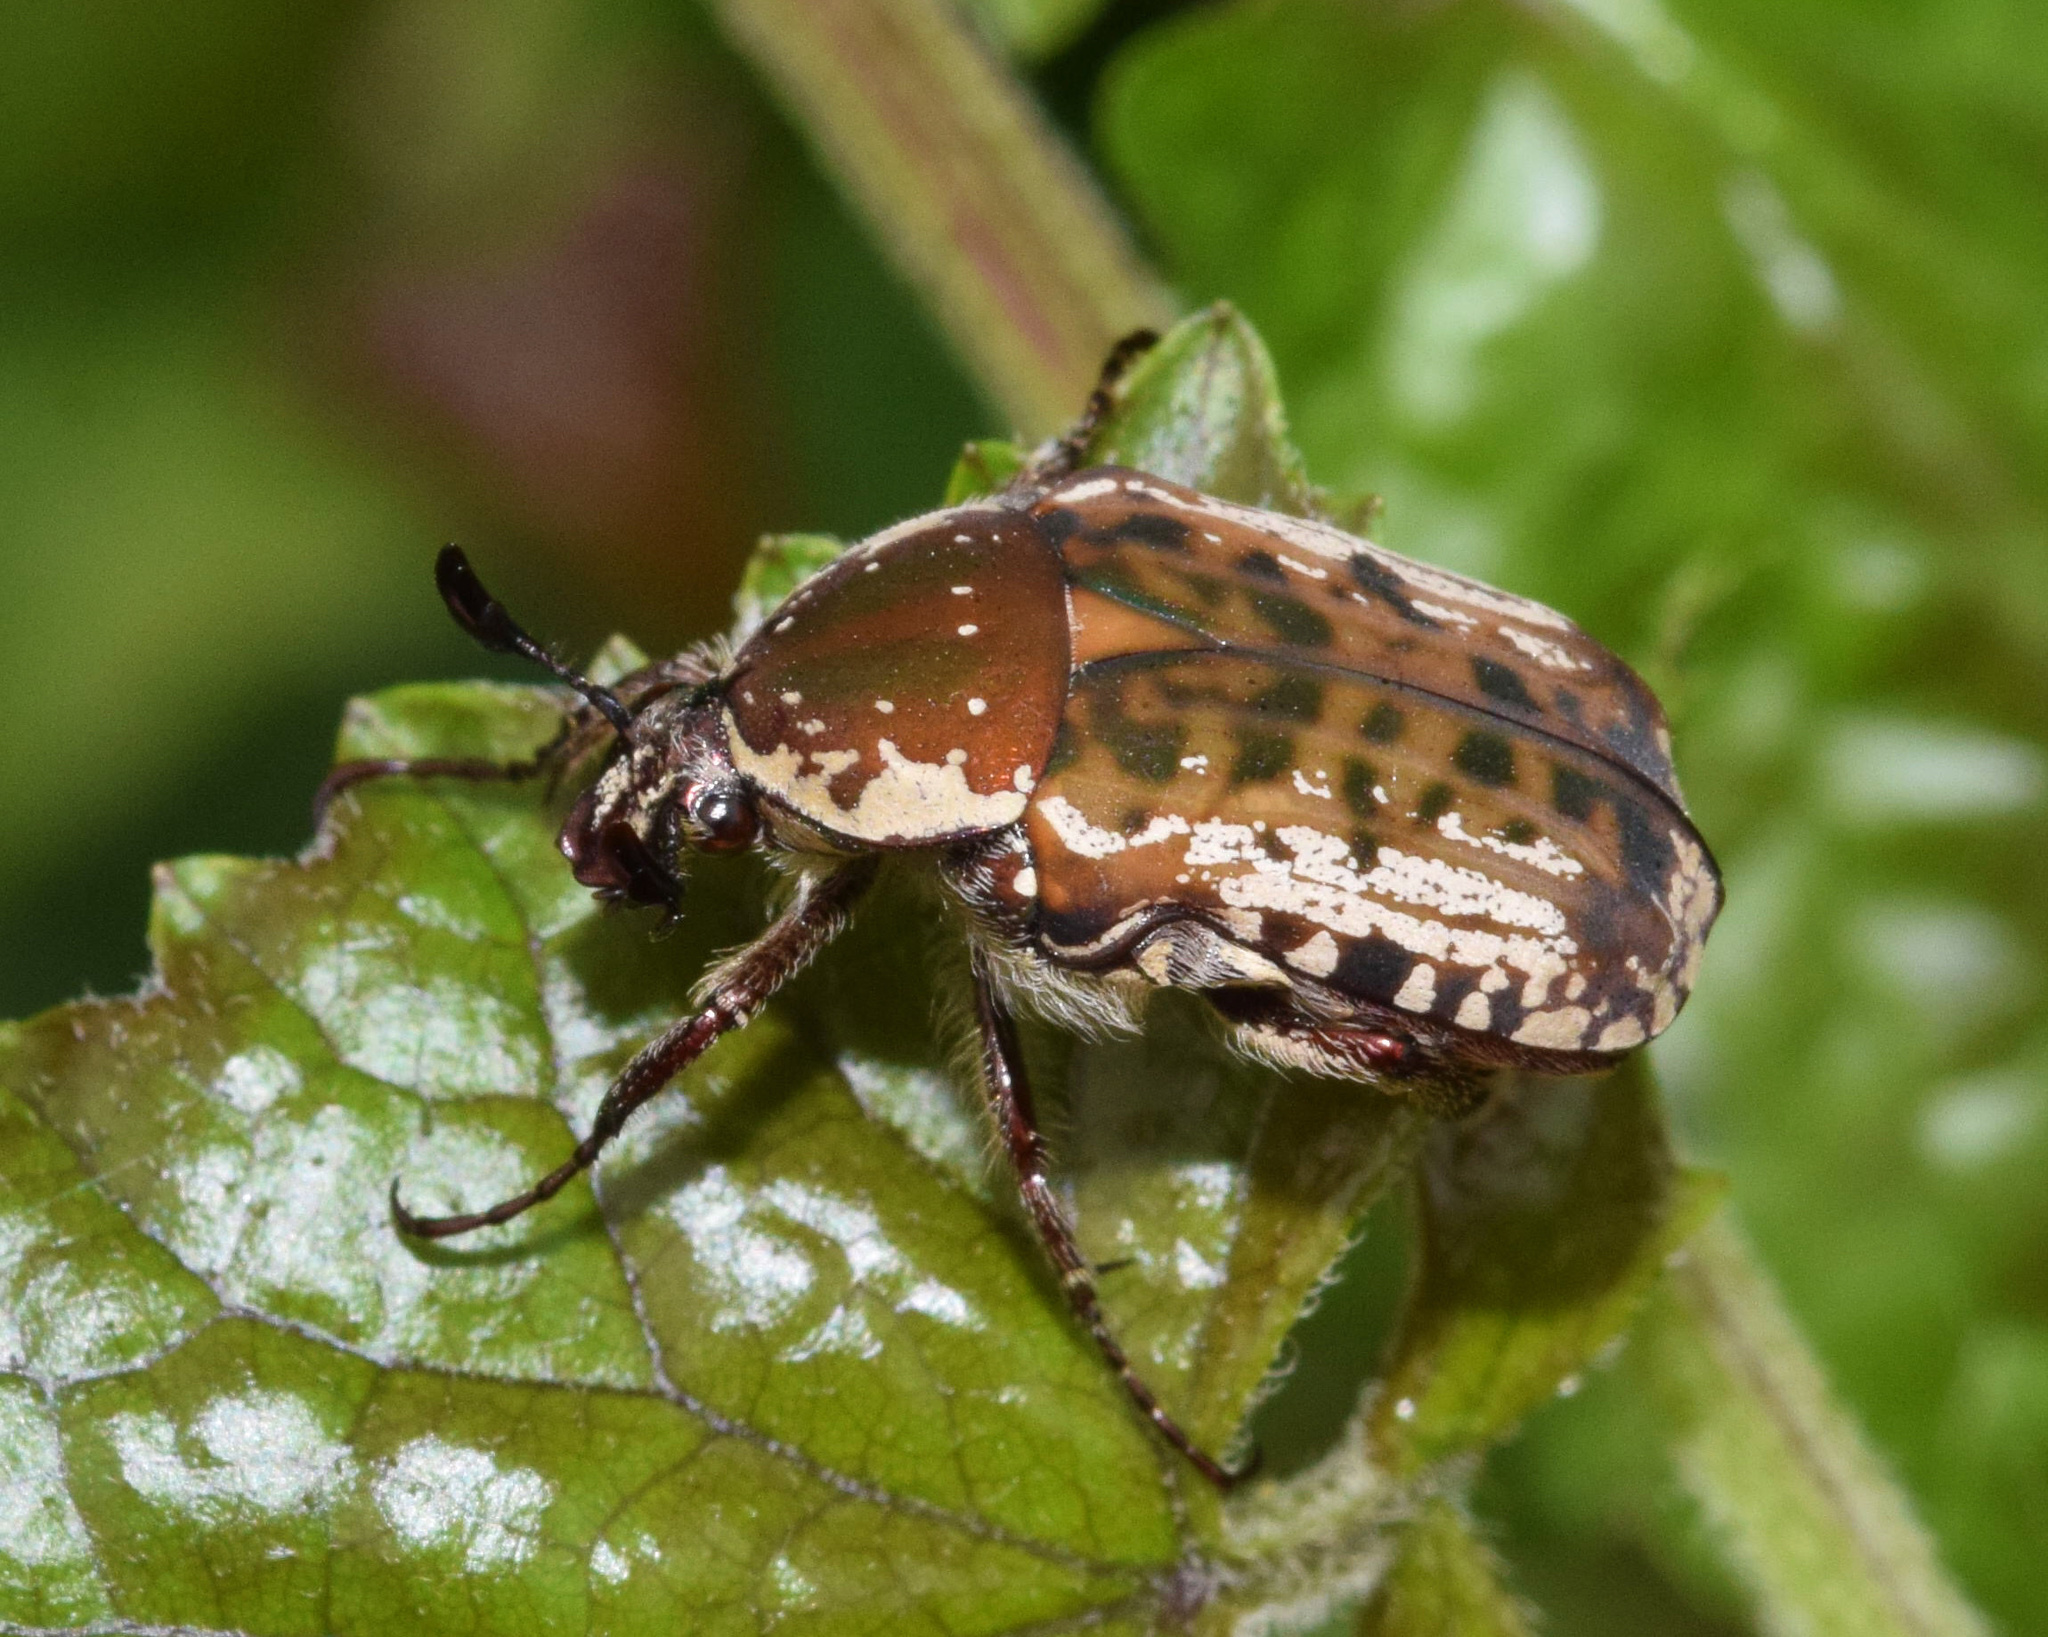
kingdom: Animalia
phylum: Arthropoda
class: Insecta
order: Coleoptera
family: Scarabaeidae
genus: Elaphinis
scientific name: Elaphinis irrorata
